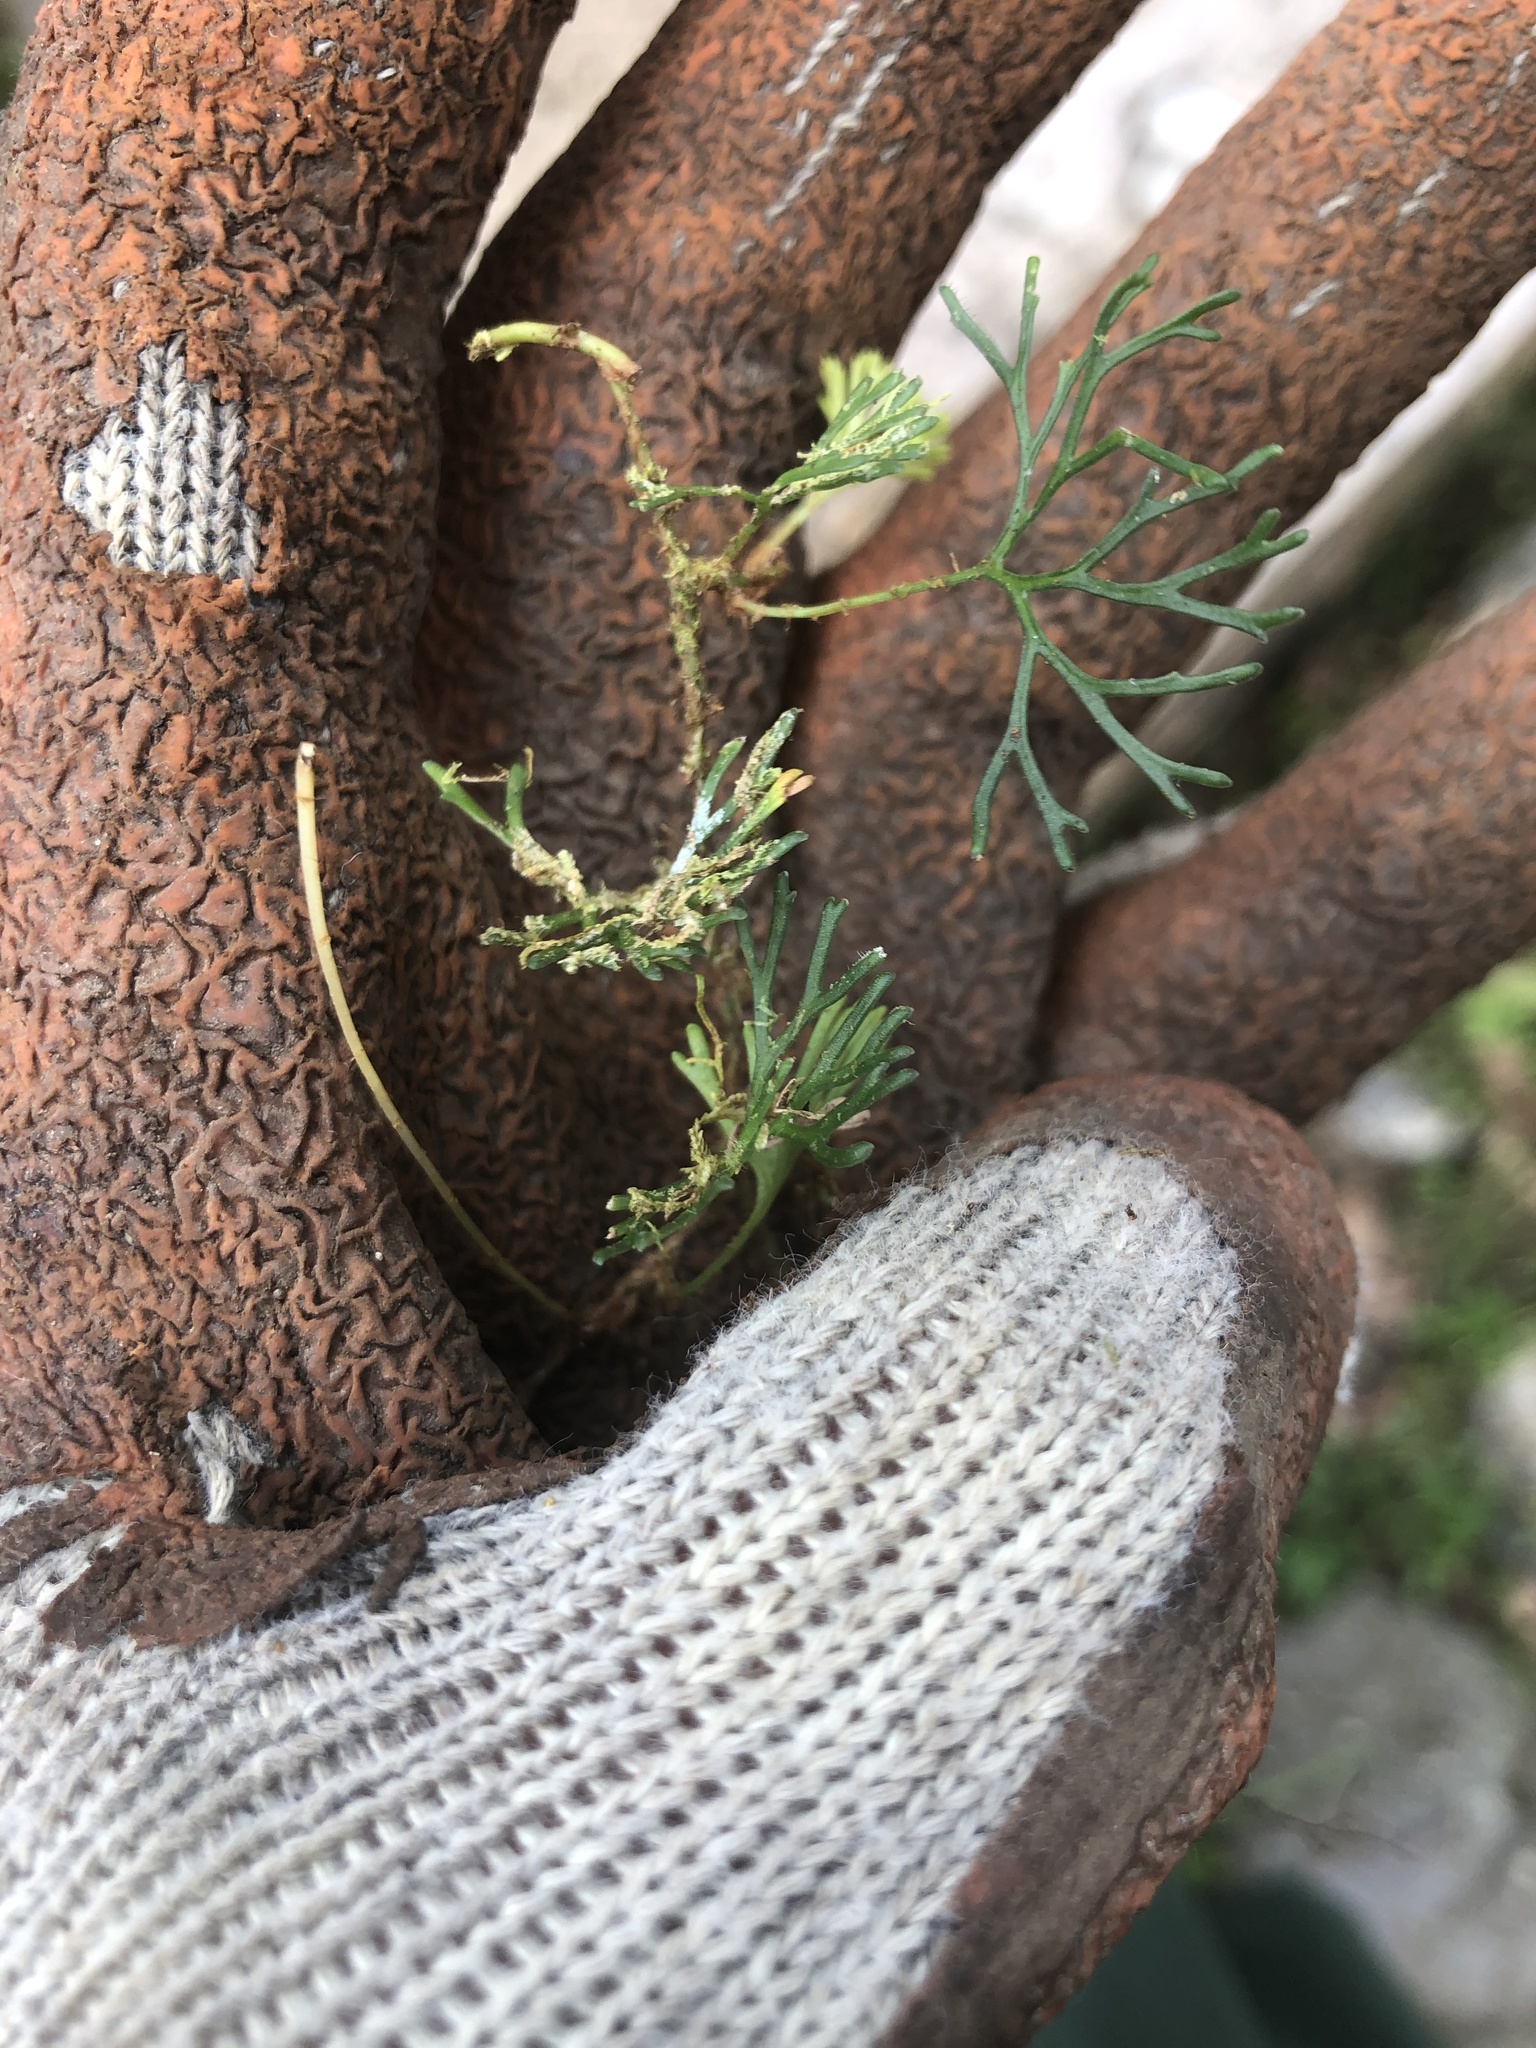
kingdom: Plantae
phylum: Tracheophyta
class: Polypodiopsida
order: Polypodiales
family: Dryopteridaceae
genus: Elaphoglossum
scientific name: Elaphoglossum peltatum
